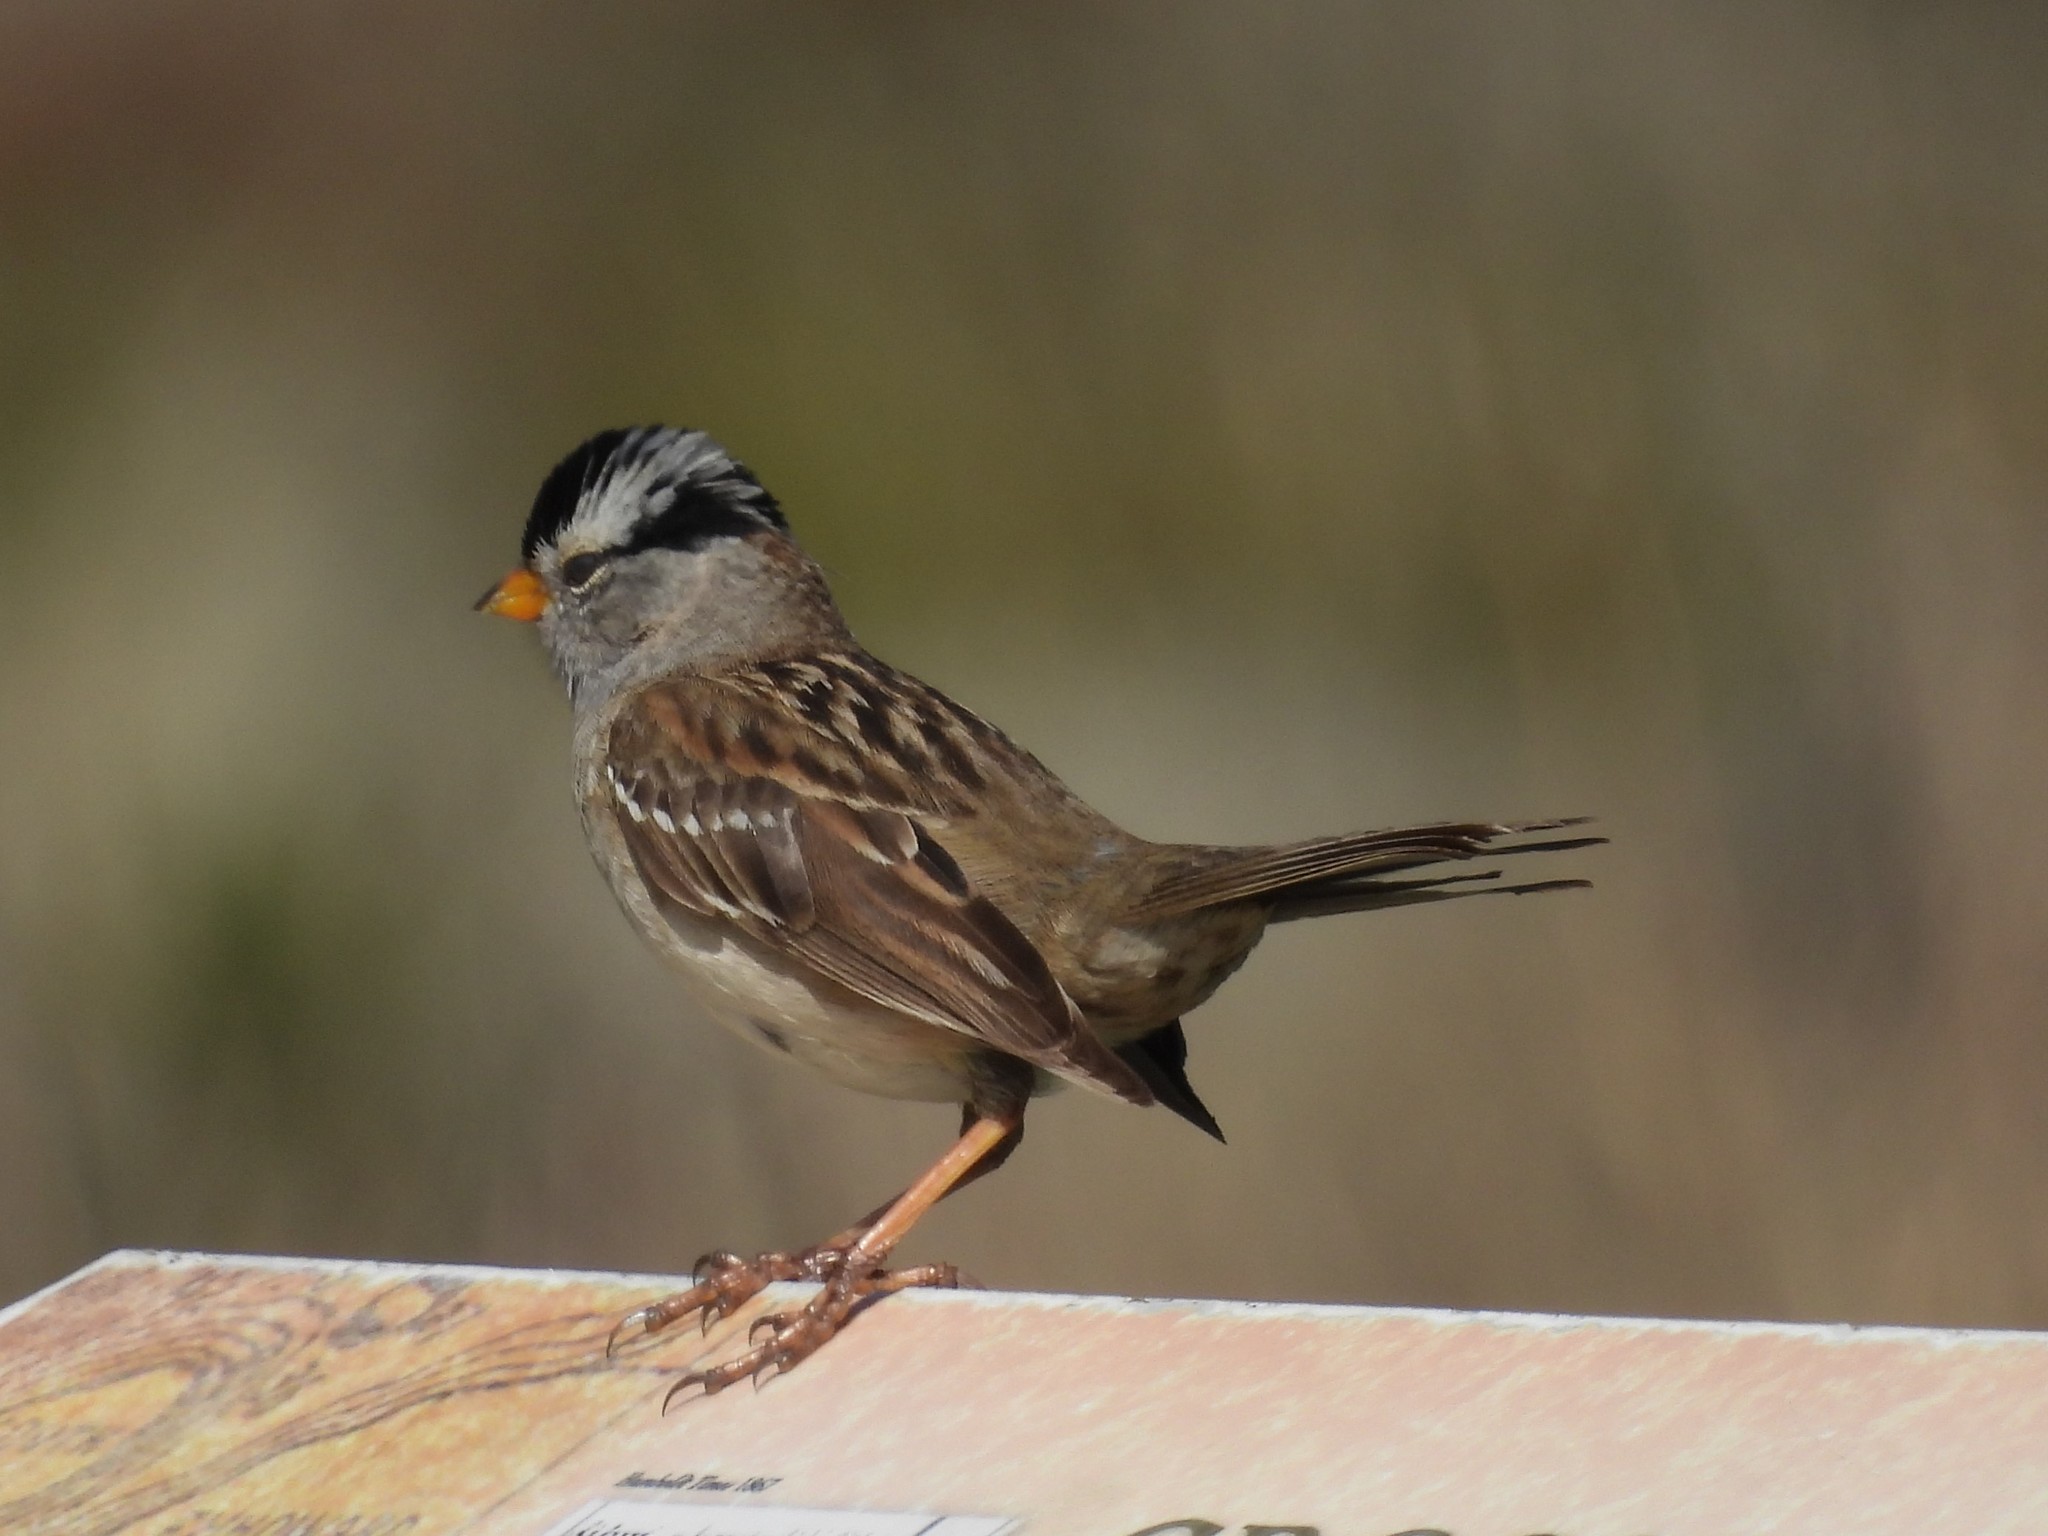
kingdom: Animalia
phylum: Chordata
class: Aves
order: Passeriformes
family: Passerellidae
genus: Zonotrichia
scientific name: Zonotrichia leucophrys
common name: White-crowned sparrow
